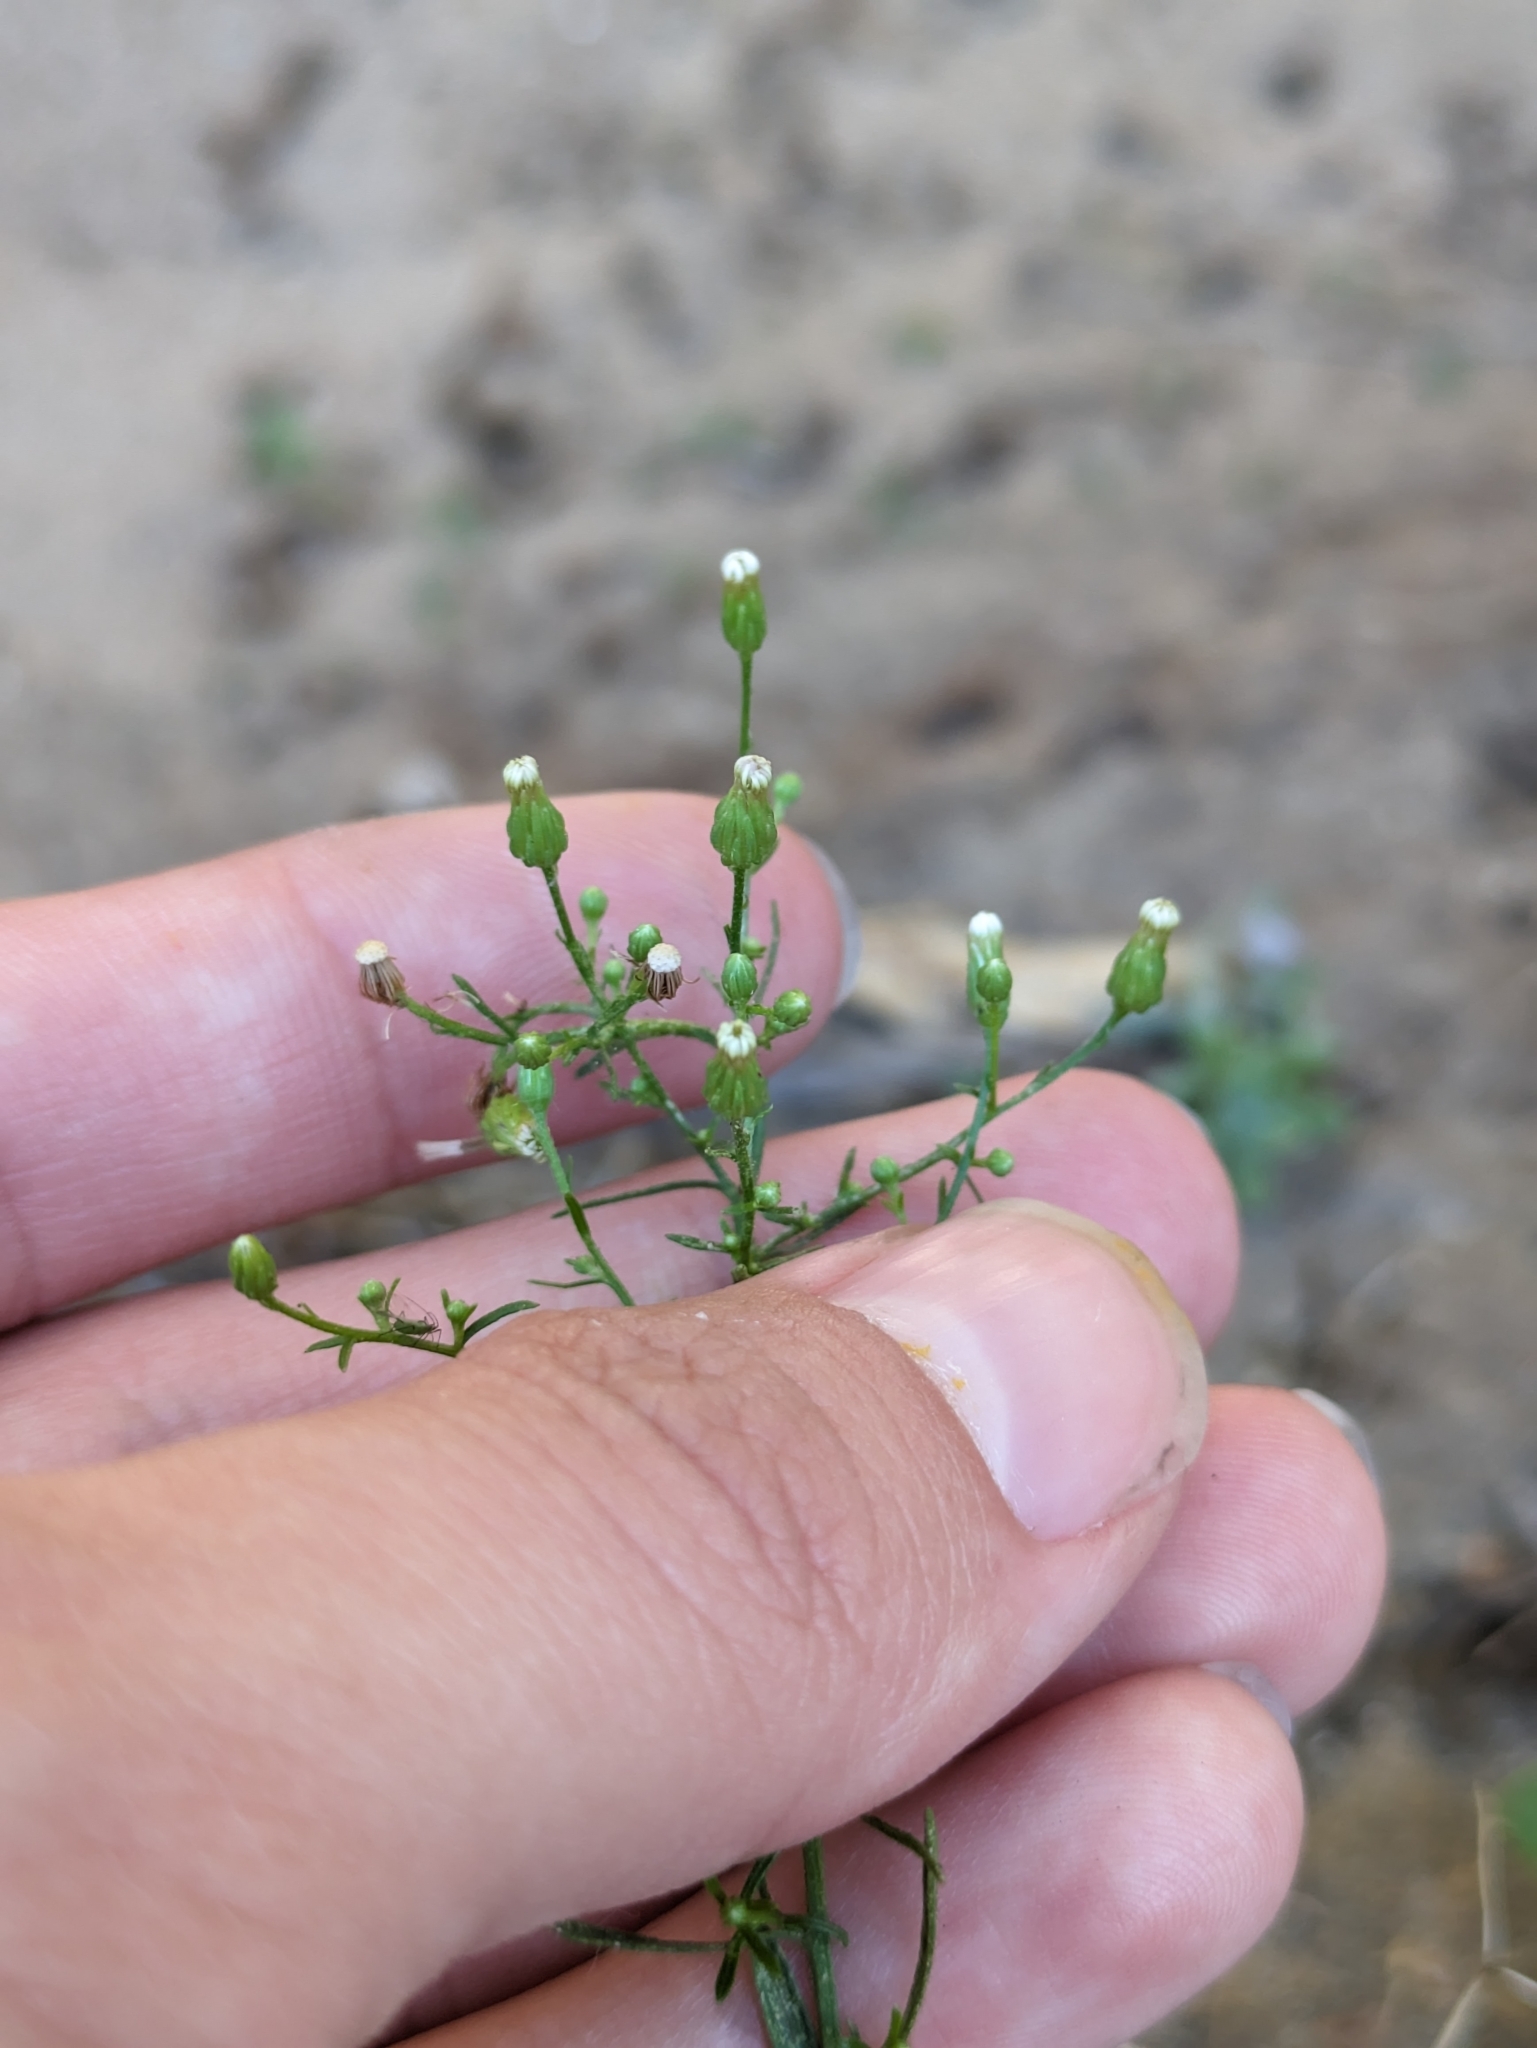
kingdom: Plantae
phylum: Tracheophyta
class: Magnoliopsida
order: Asterales
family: Asteraceae
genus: Erigeron
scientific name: Erigeron canadensis
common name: Canadian fleabane
